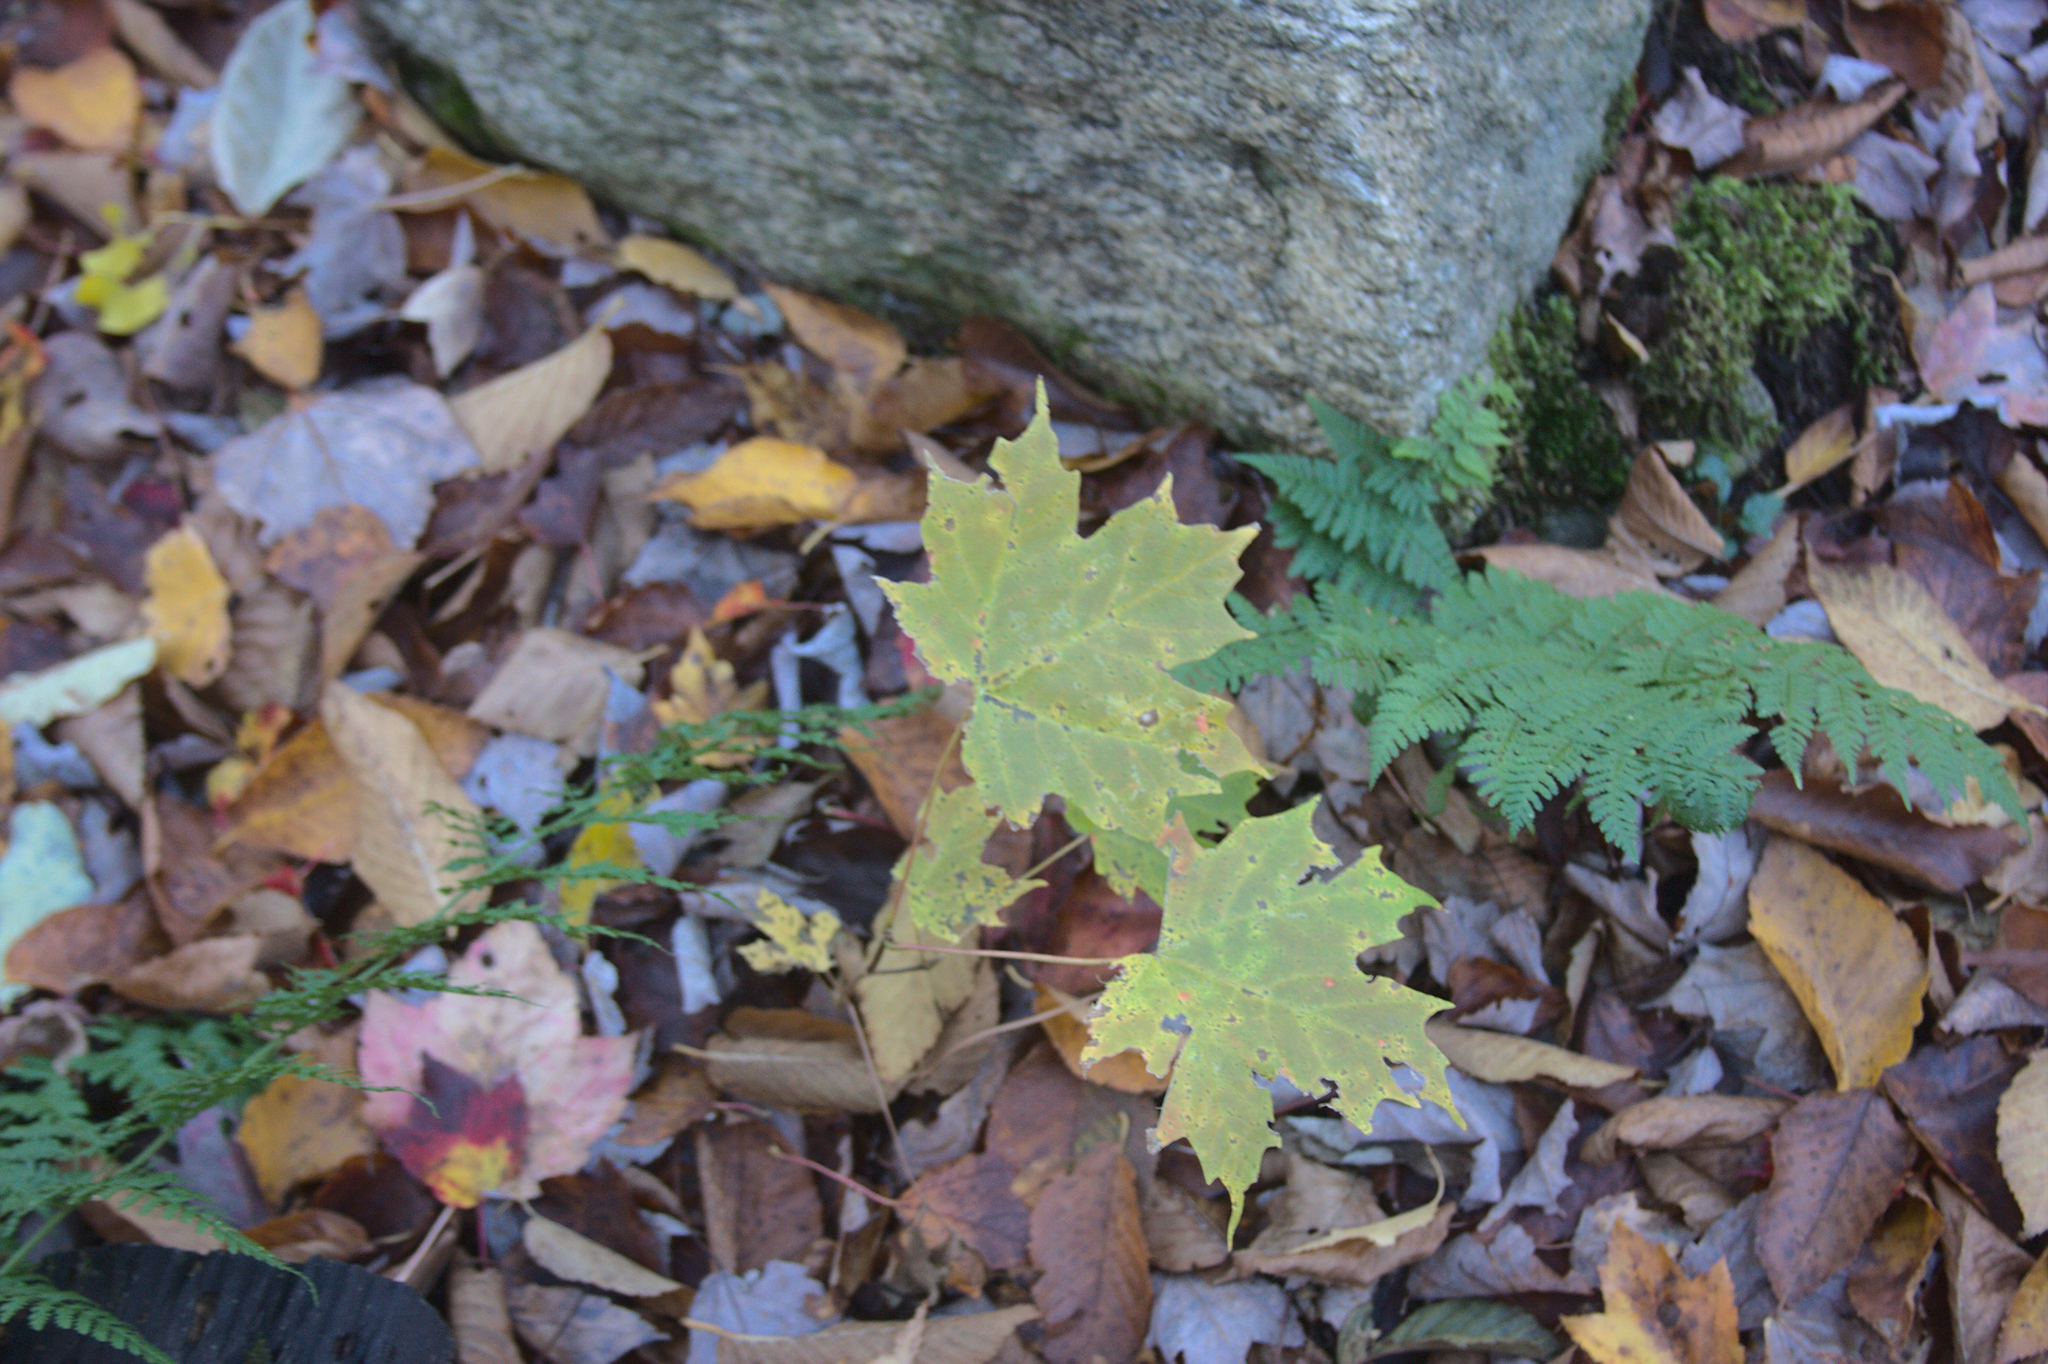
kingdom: Plantae
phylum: Tracheophyta
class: Magnoliopsida
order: Sapindales
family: Sapindaceae
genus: Acer
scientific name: Acer saccharum
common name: Sugar maple
